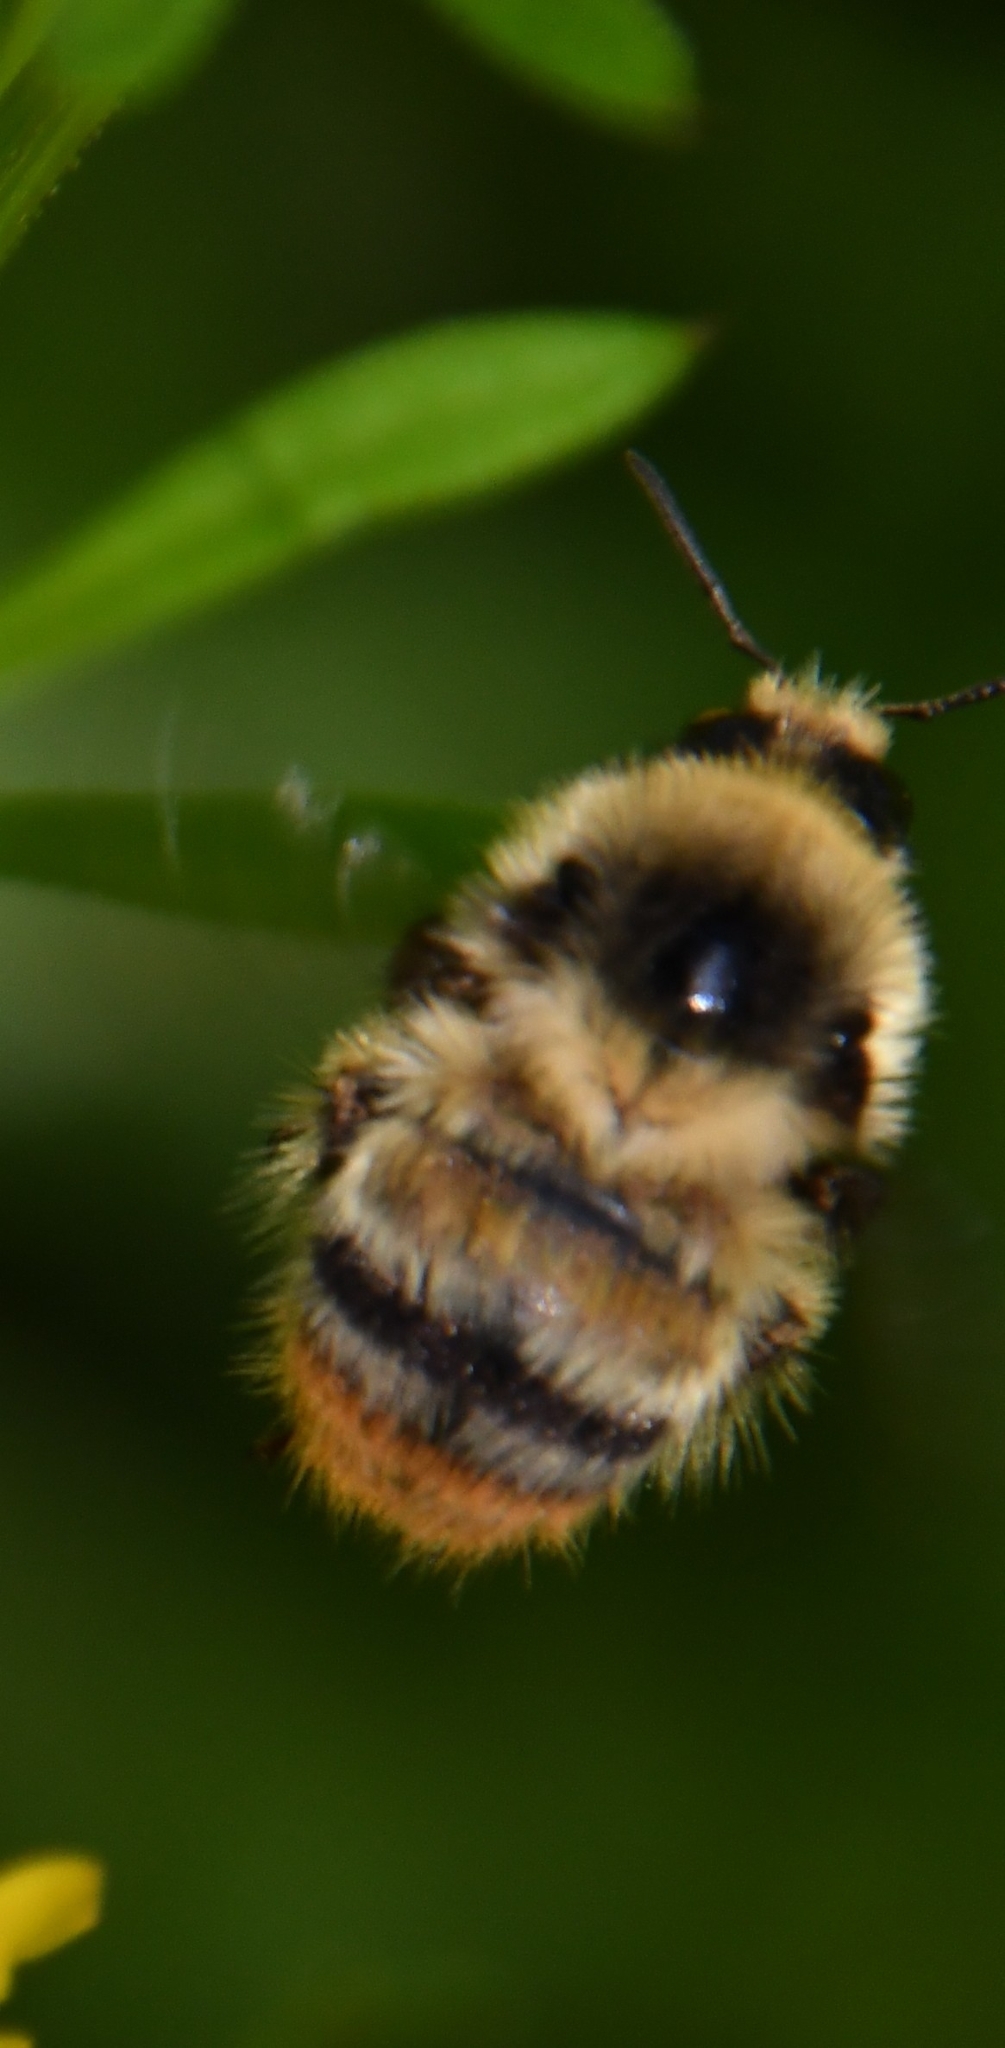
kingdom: Animalia
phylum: Arthropoda
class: Insecta
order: Hymenoptera
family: Apidae
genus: Bombus
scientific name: Bombus sylvarum
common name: Shrill carder bee
